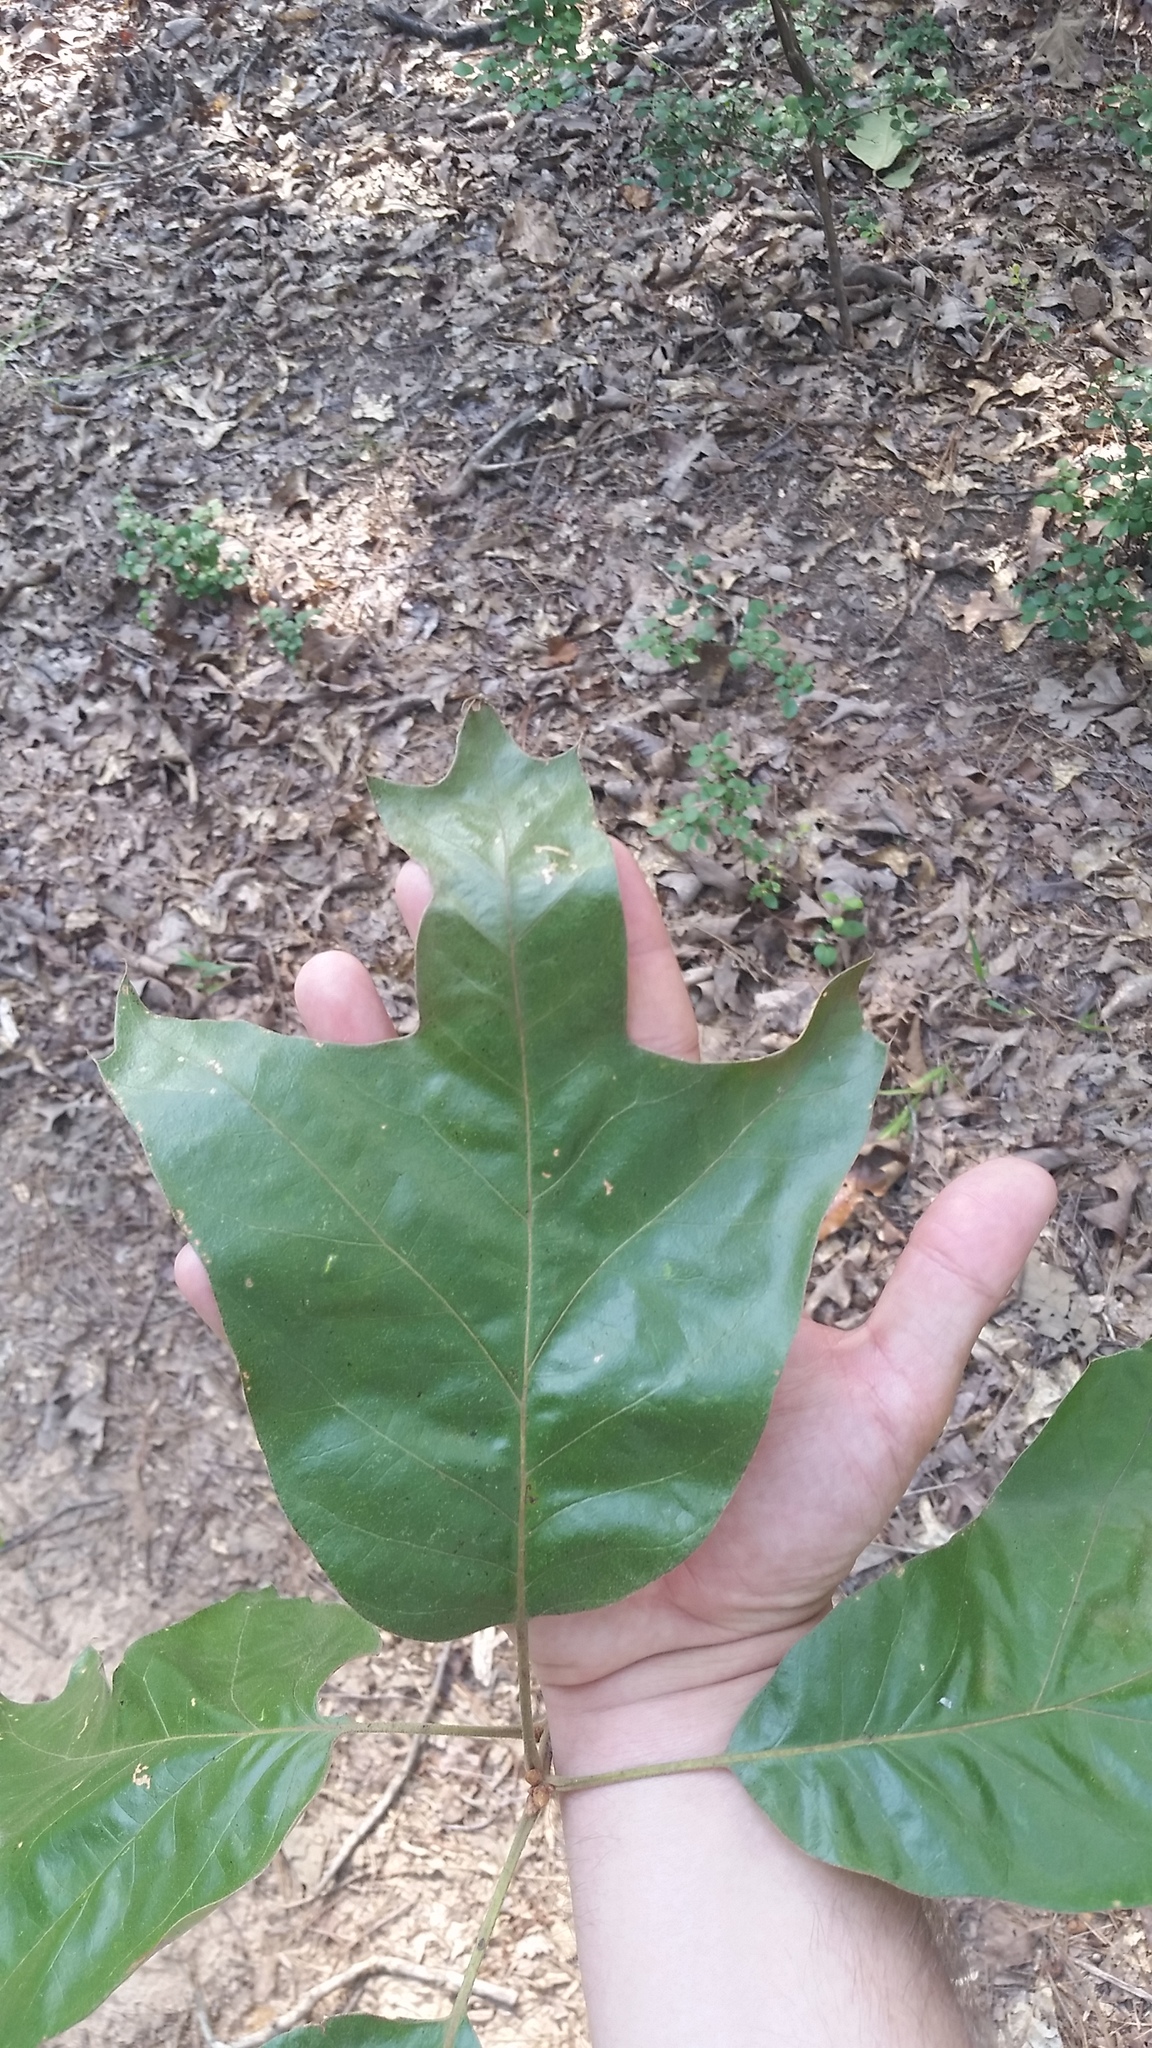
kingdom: Plantae
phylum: Tracheophyta
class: Magnoliopsida
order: Fagales
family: Fagaceae
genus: Quercus
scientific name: Quercus falcata
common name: Southern red oak
